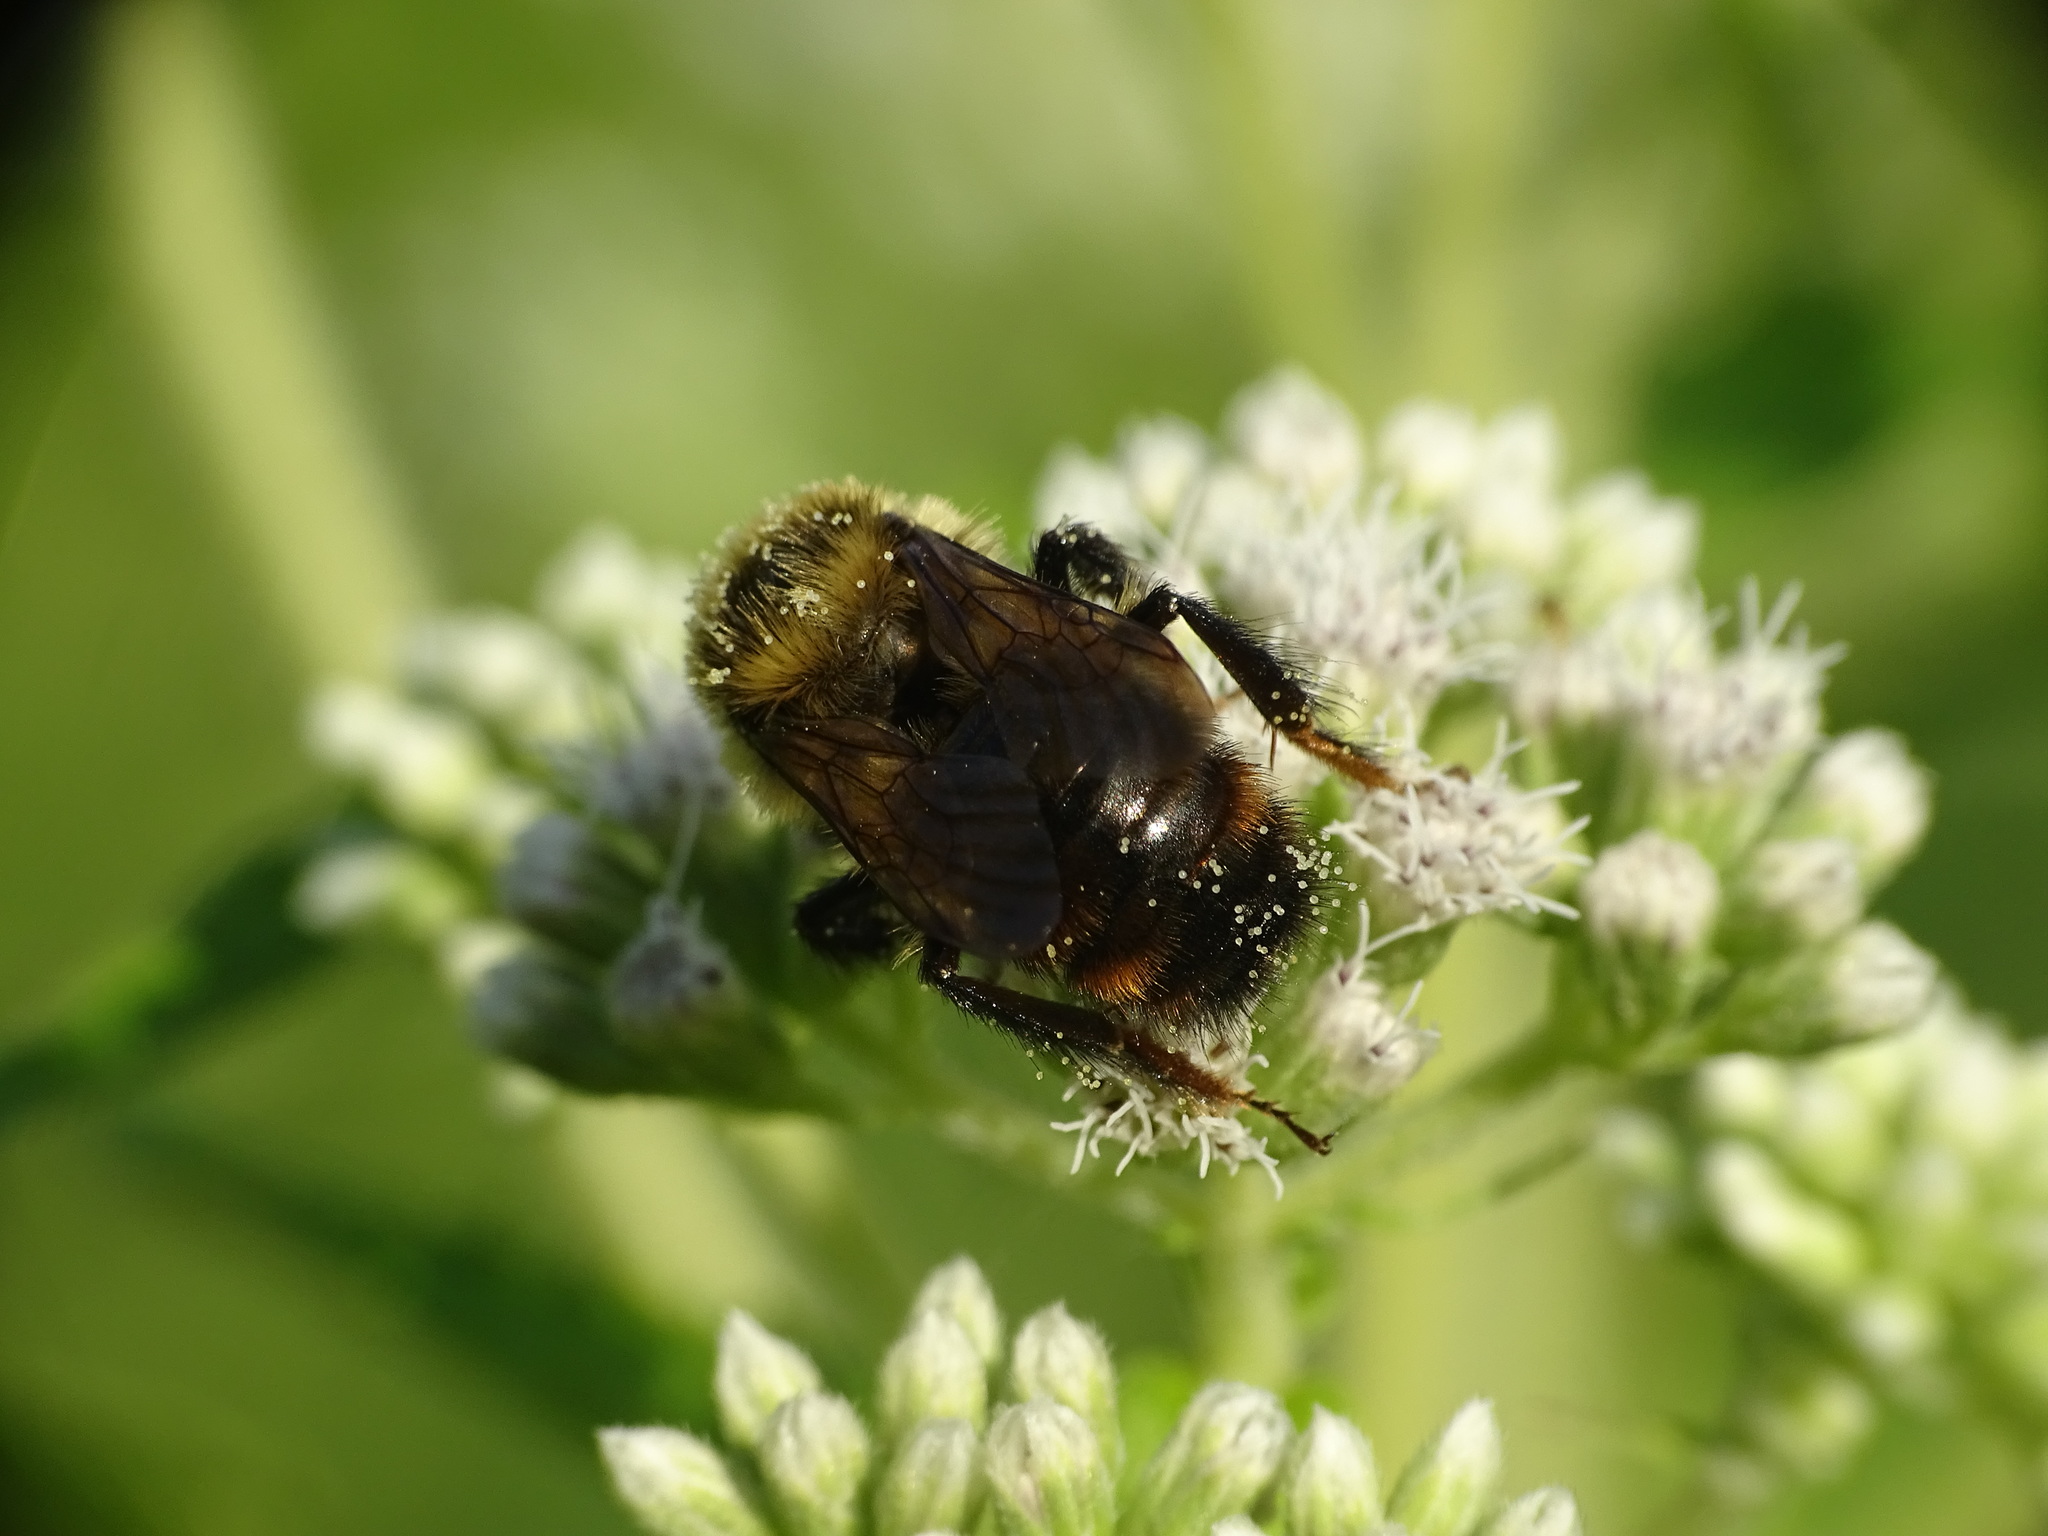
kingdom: Animalia
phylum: Arthropoda
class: Insecta
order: Hymenoptera
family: Apidae
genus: Bombus
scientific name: Bombus rufocinctus
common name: Red-belted bumble bee
